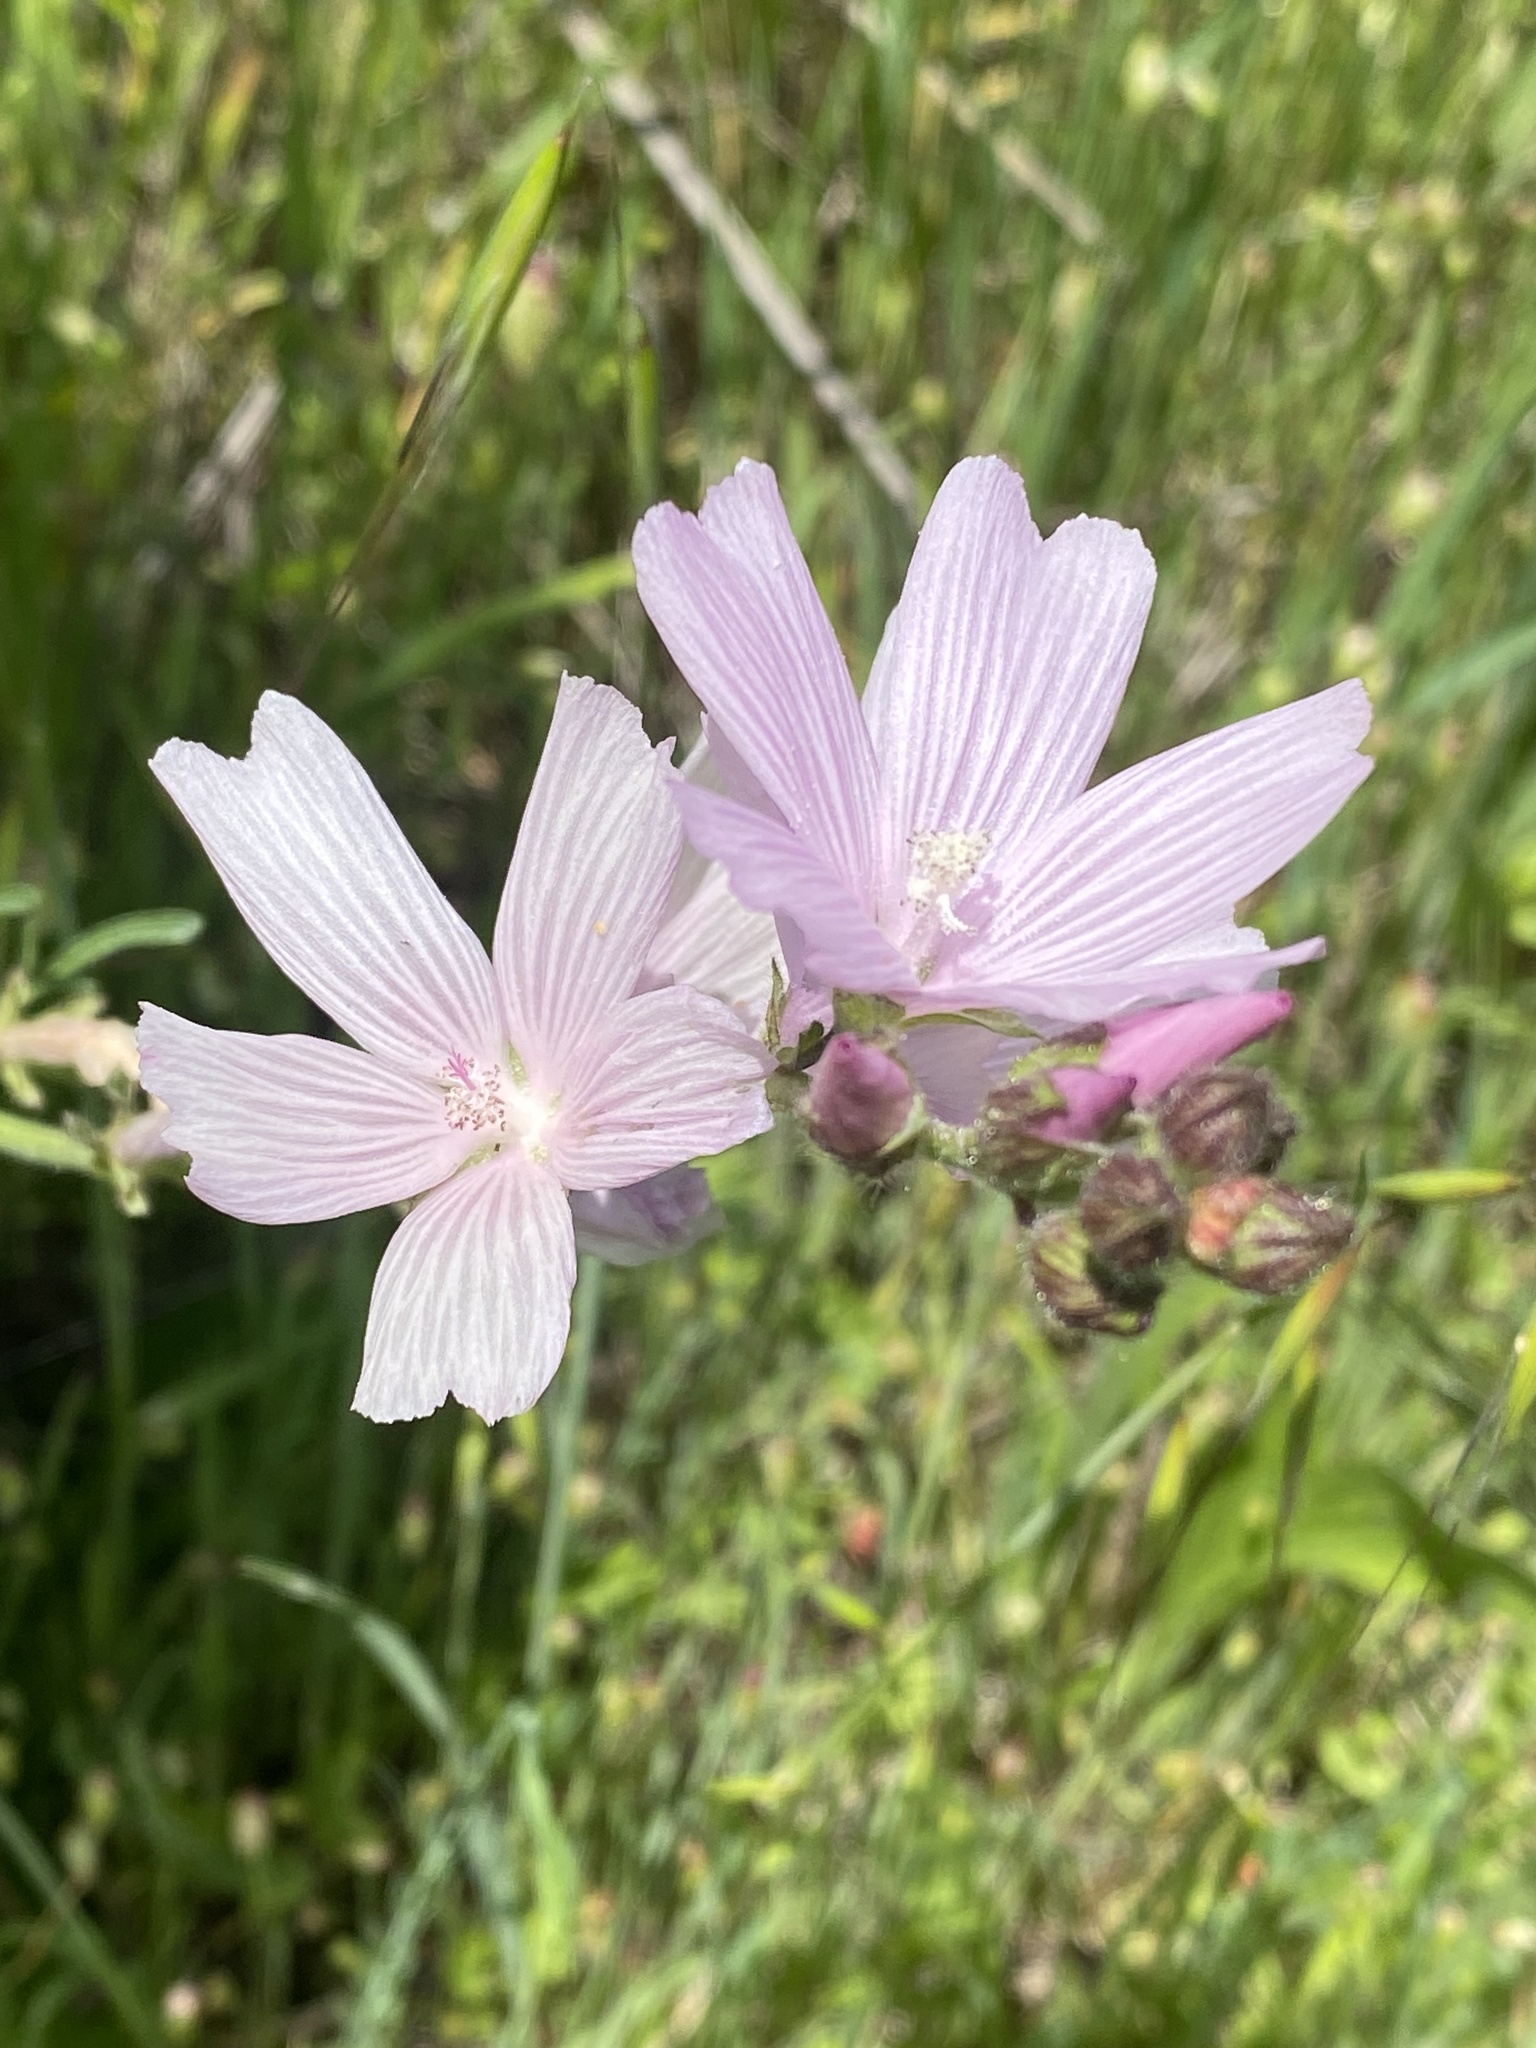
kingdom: Plantae
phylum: Tracheophyta
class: Magnoliopsida
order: Malvales
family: Malvaceae
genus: Sidalcea
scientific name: Sidalcea malviflora
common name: Greek mallow
